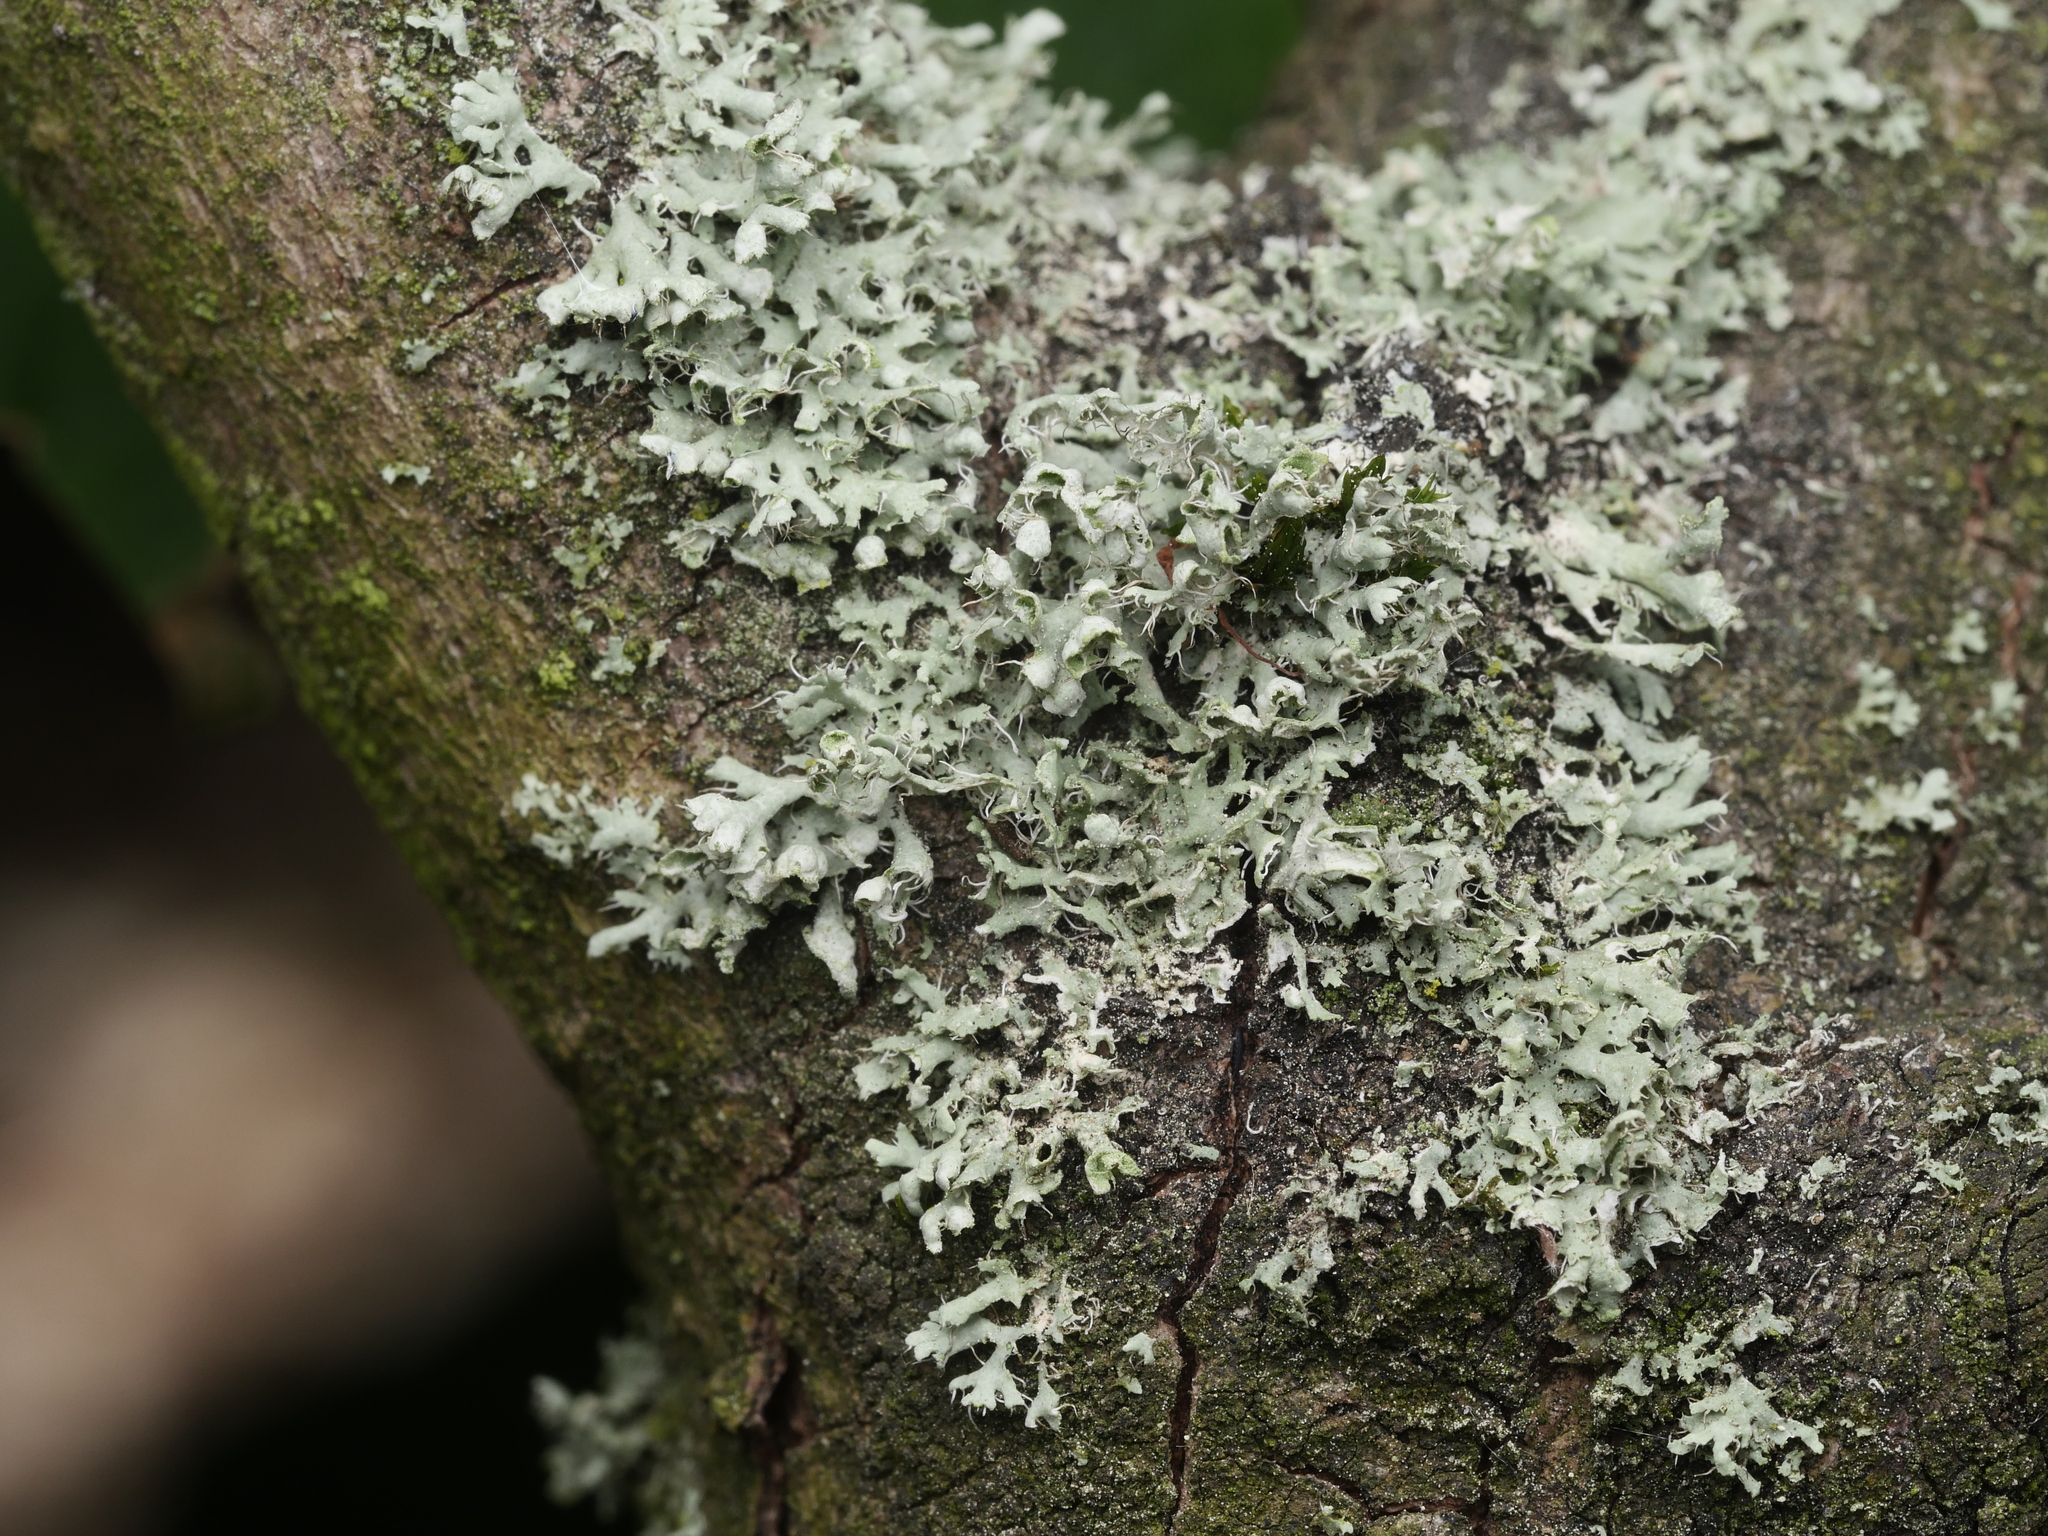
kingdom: Fungi
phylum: Ascomycota
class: Lecanoromycetes
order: Caliciales
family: Physciaceae
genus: Physcia
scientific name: Physcia adscendens
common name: Hooded rosette lichen
